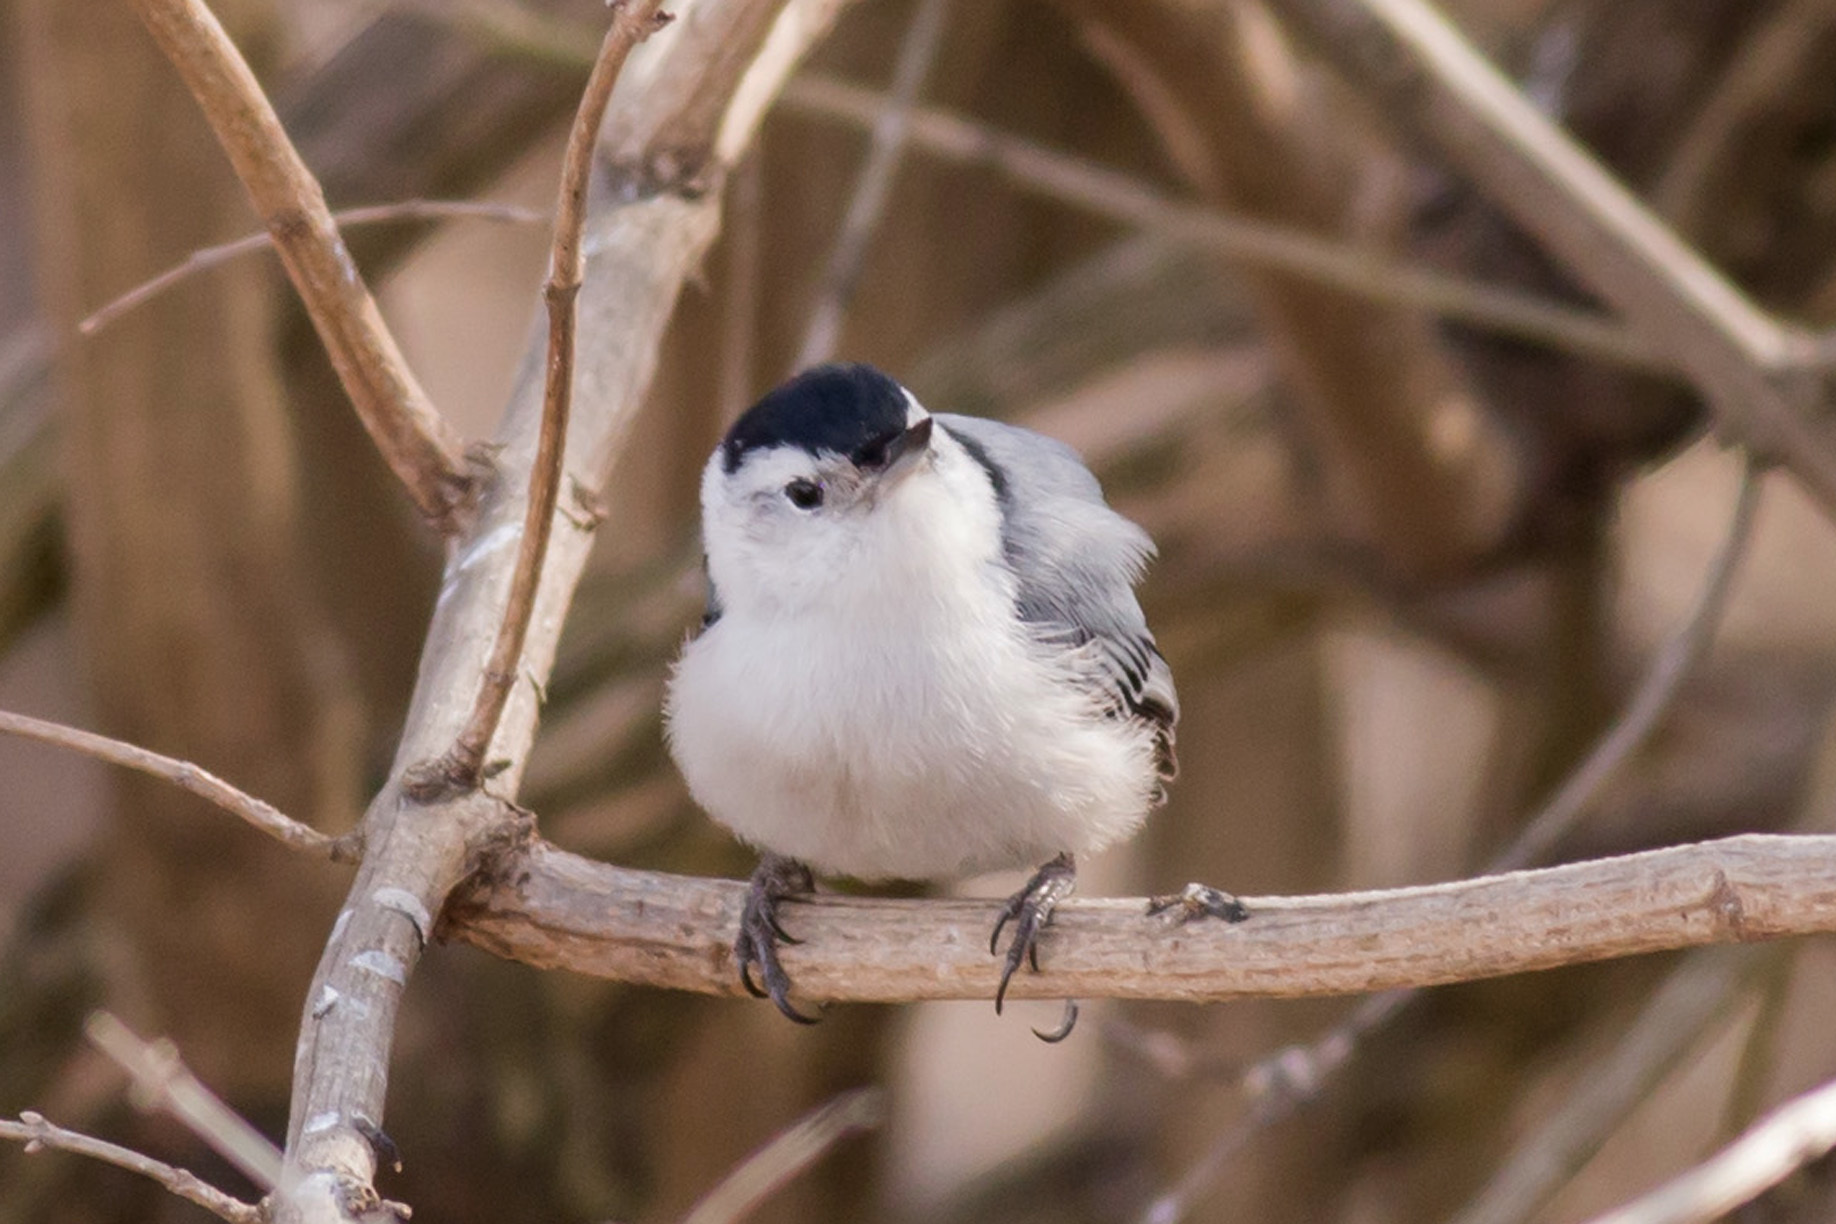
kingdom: Animalia
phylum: Chordata
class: Aves
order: Passeriformes
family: Sittidae
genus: Sitta
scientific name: Sitta carolinensis
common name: White-breasted nuthatch
